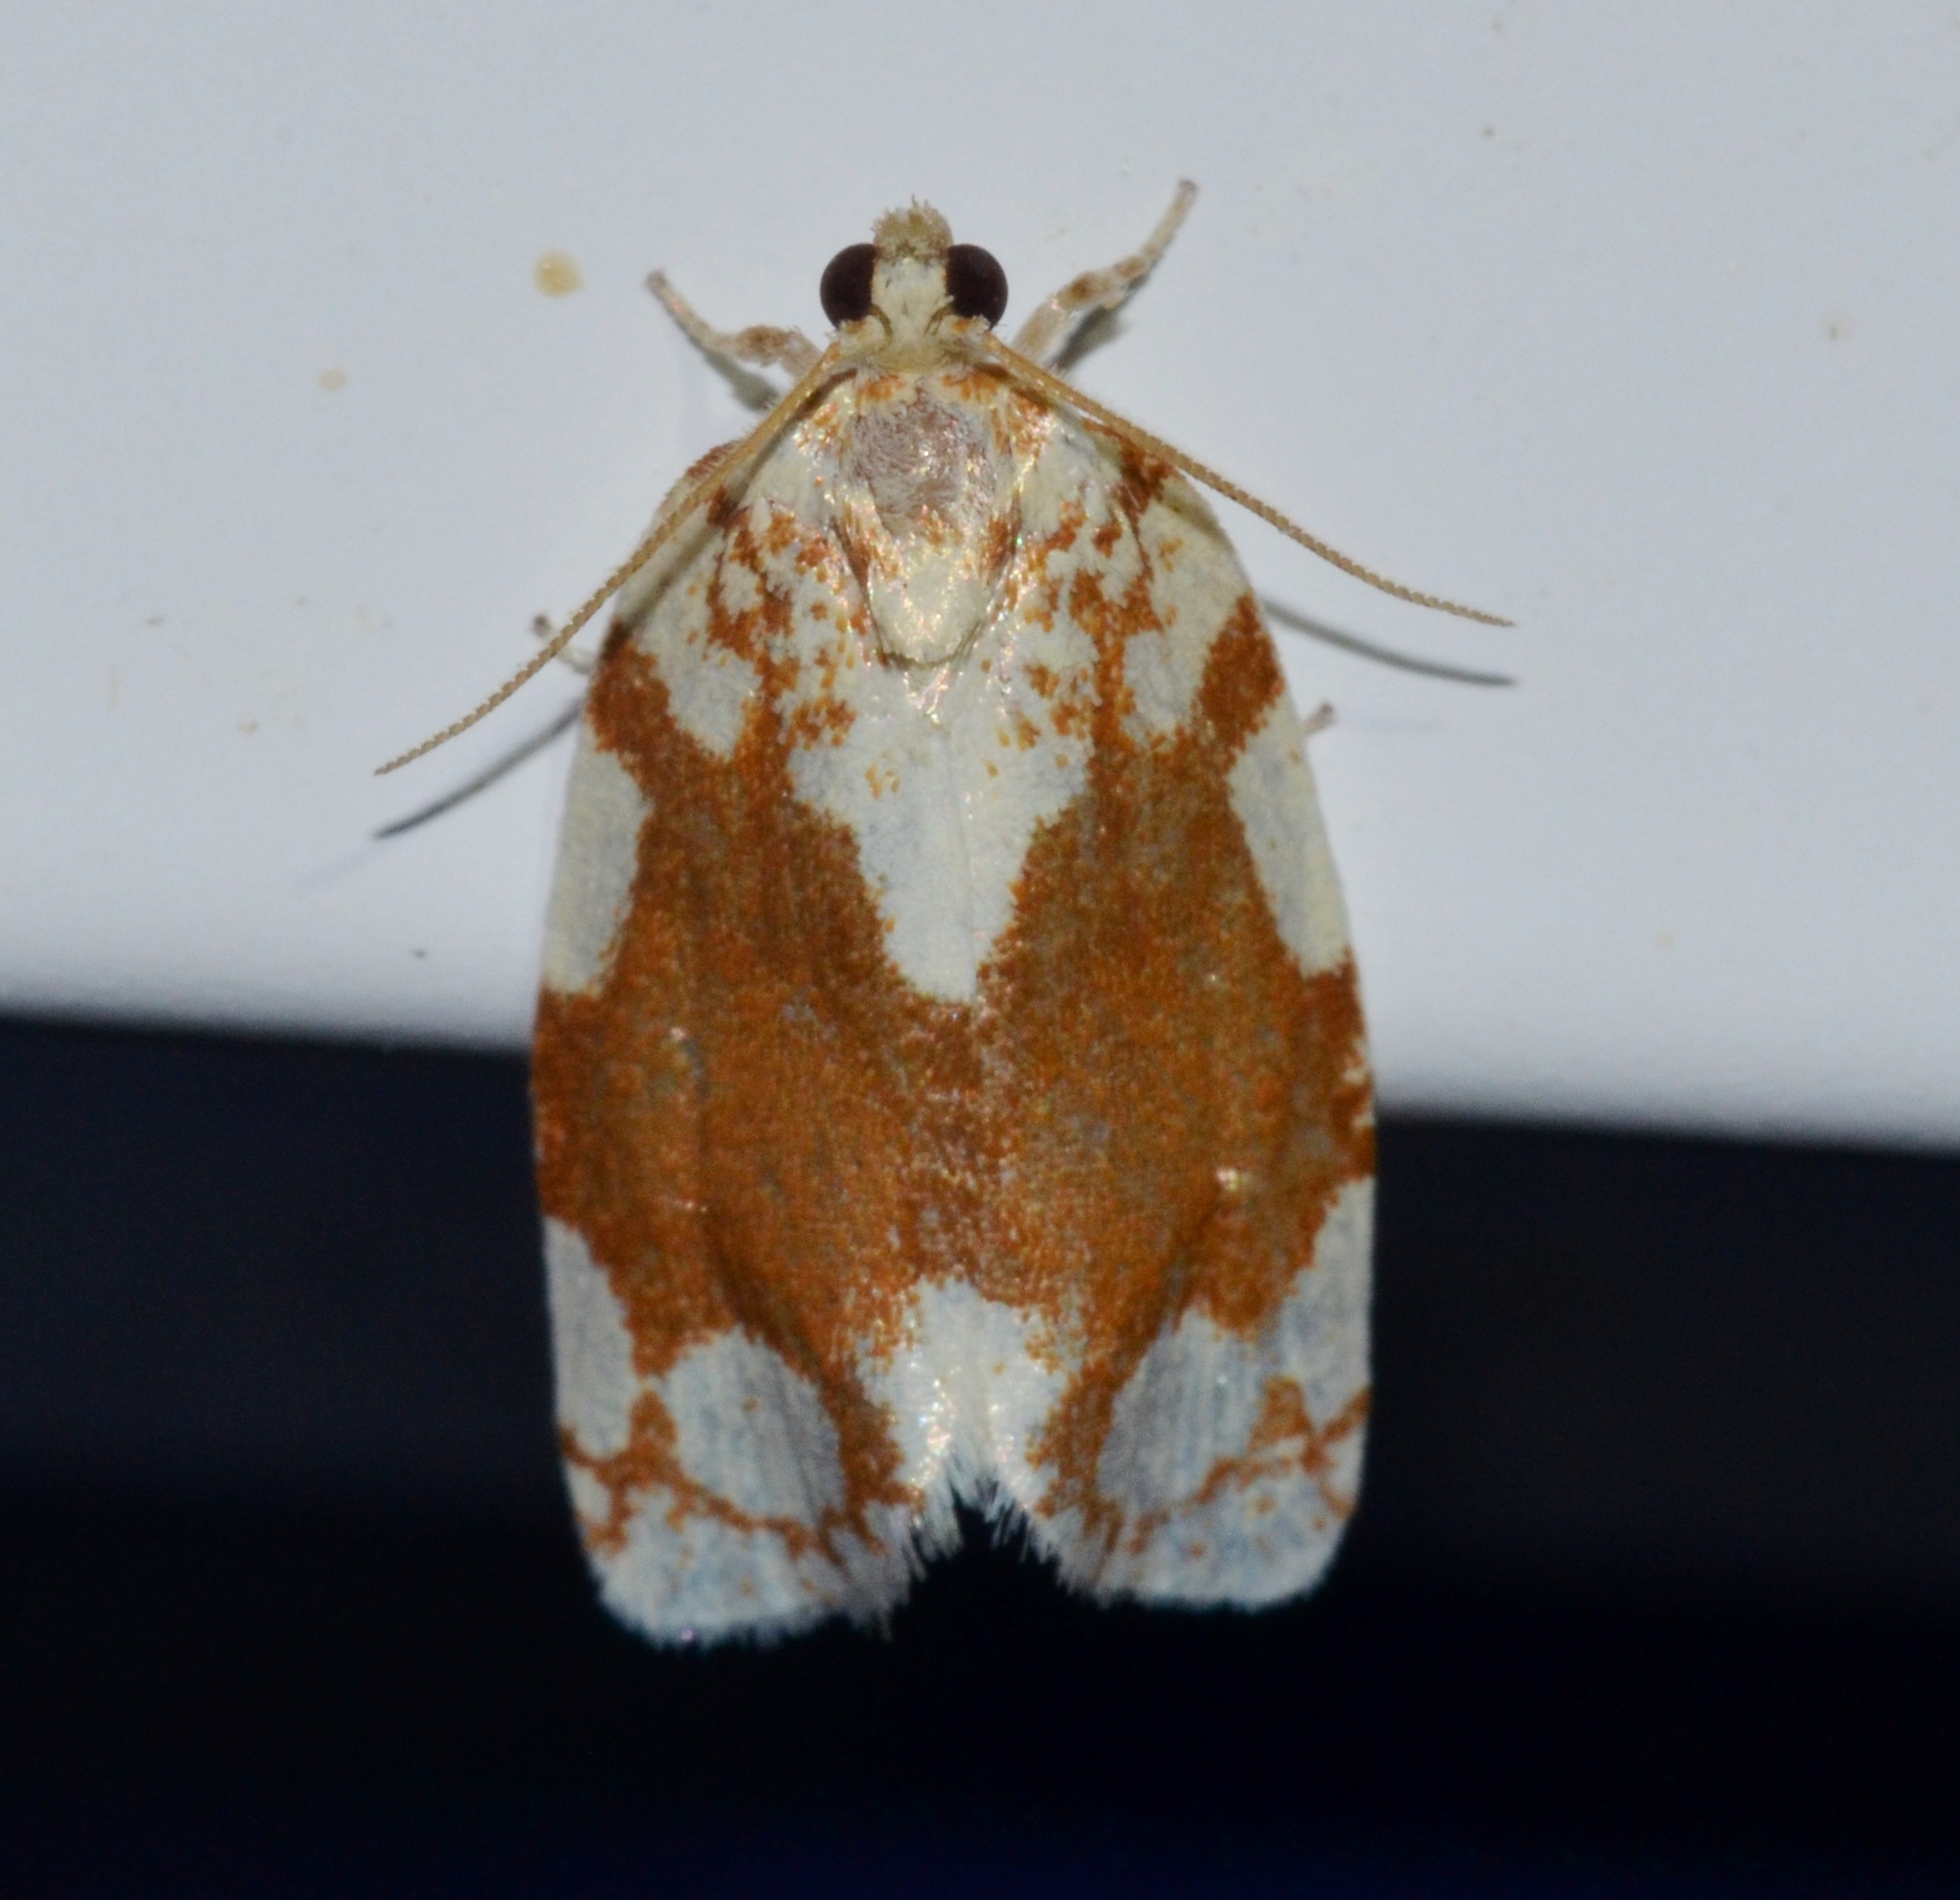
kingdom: Animalia
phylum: Arthropoda
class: Insecta
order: Lepidoptera
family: Tortricidae
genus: Argyrotaenia
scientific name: Argyrotaenia alisellana
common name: White-spotted leafroller moth
